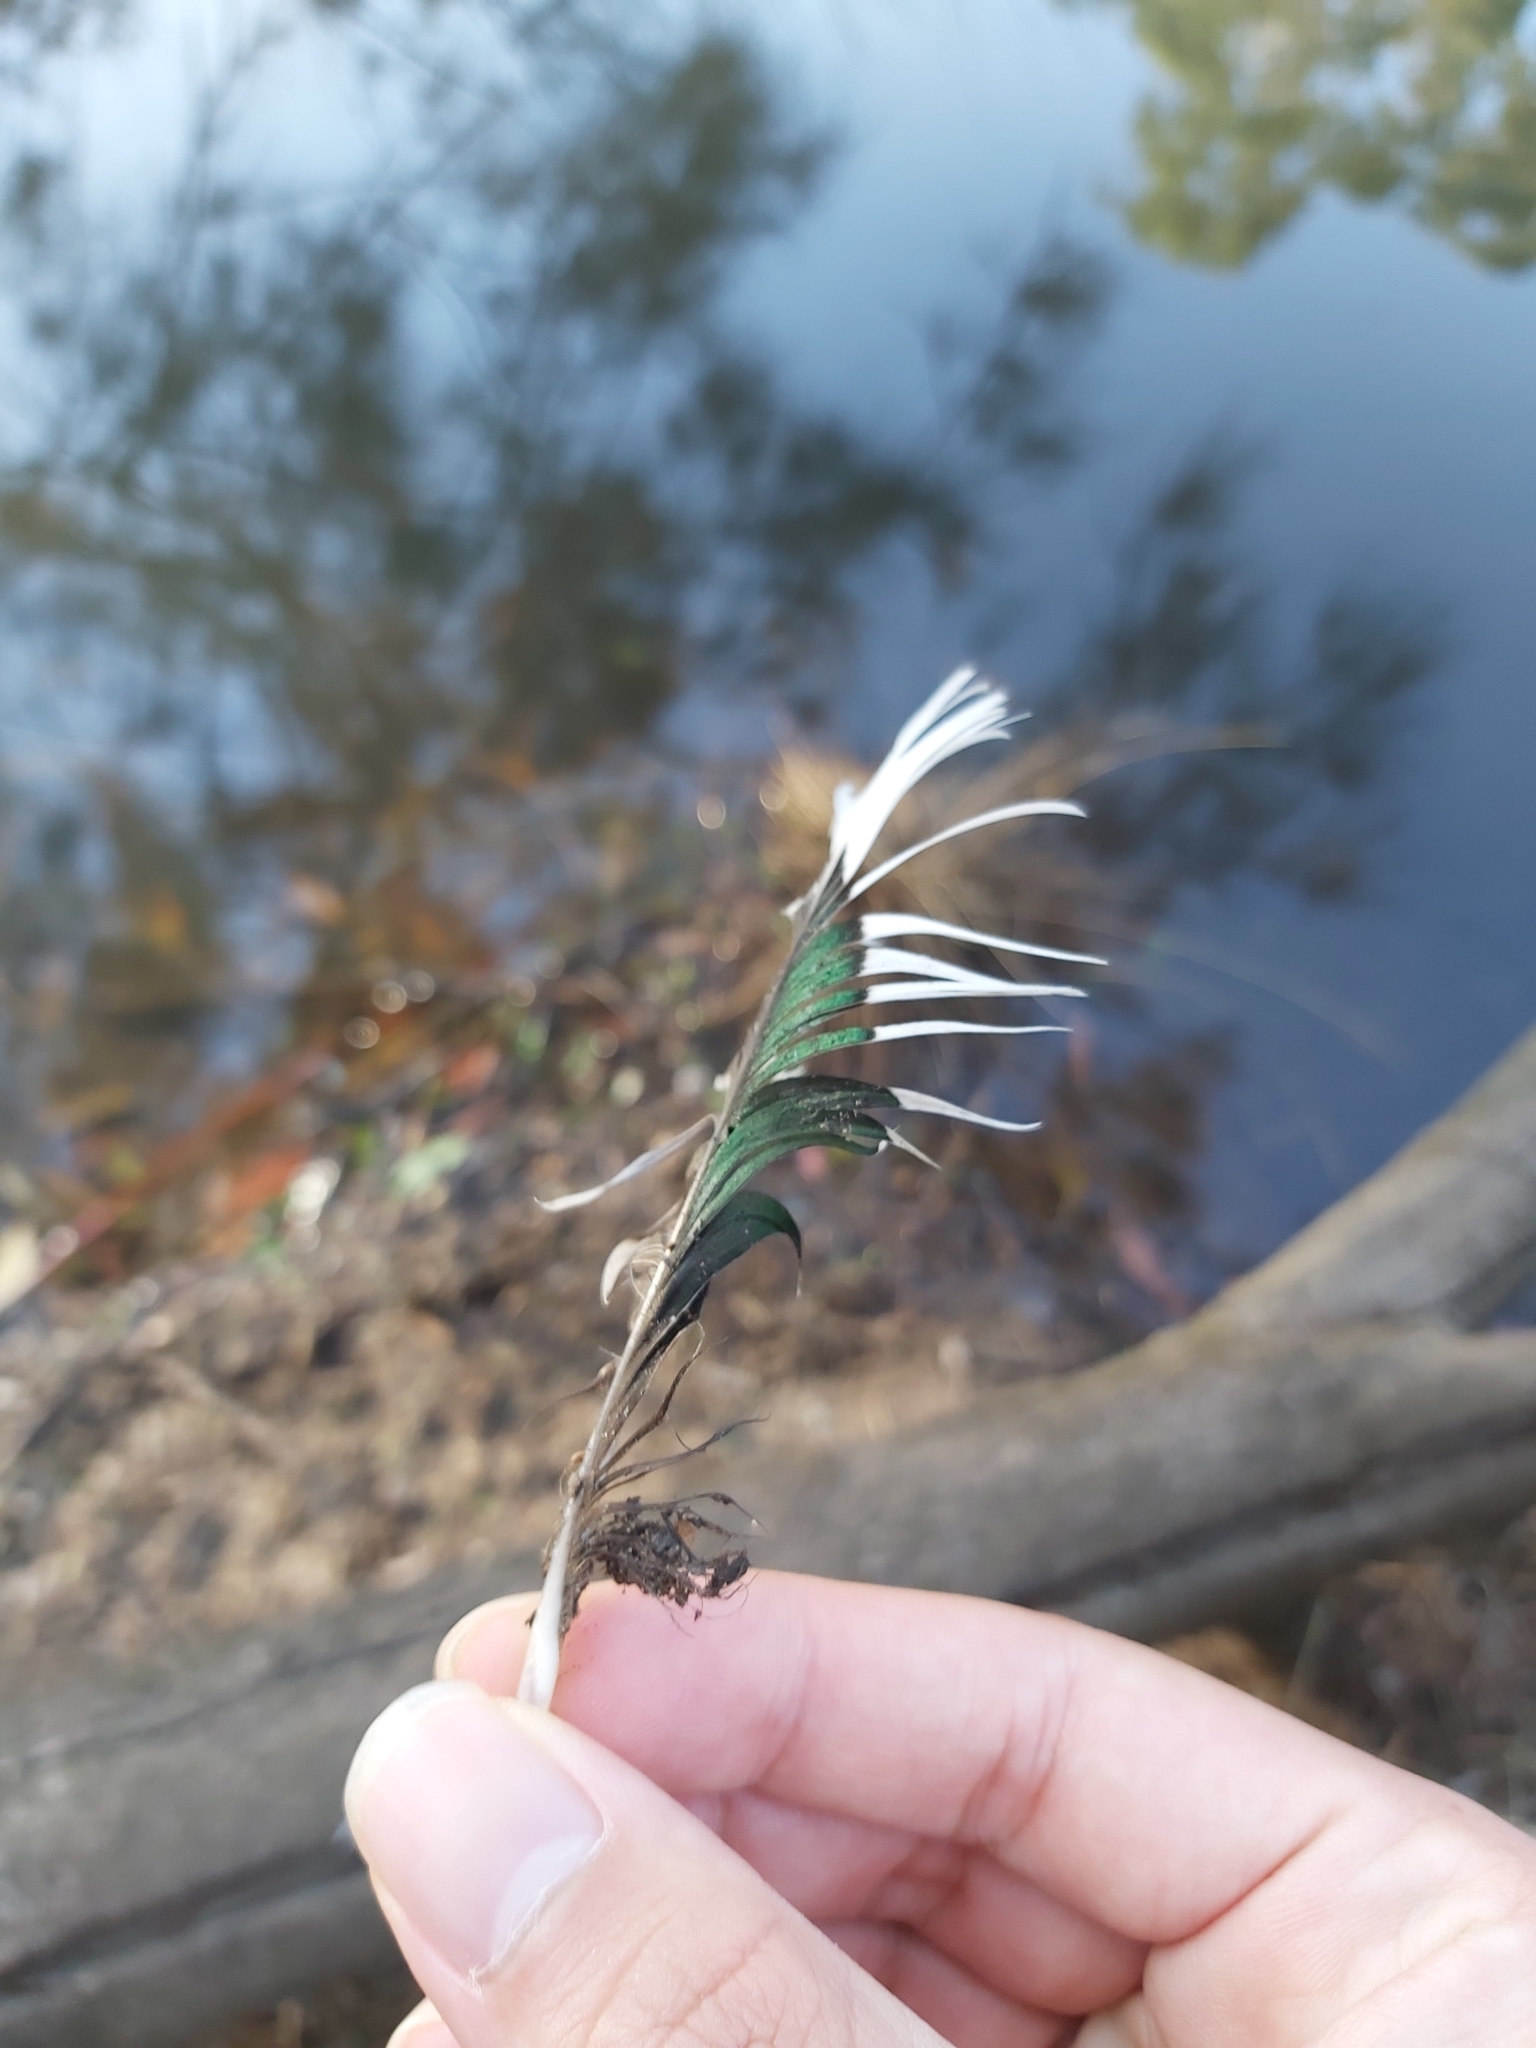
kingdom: Animalia
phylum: Chordata
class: Aves
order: Anseriformes
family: Anatidae
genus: Chenonetta
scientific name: Chenonetta jubata
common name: Maned duck
